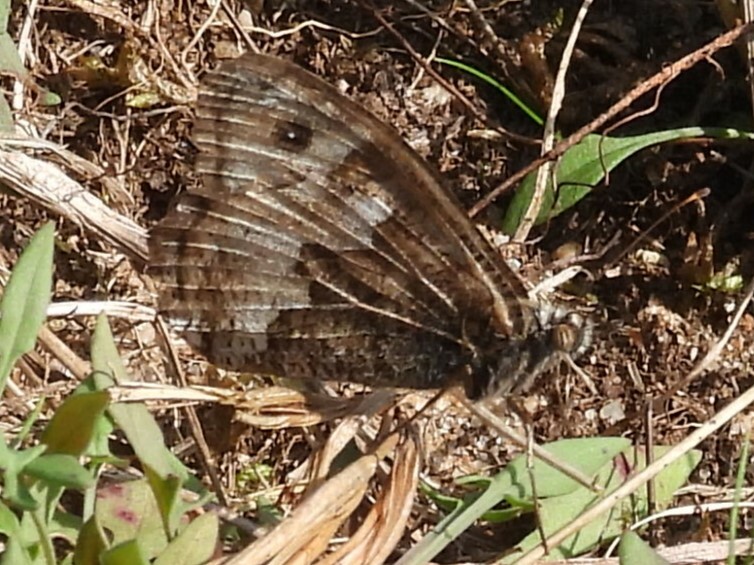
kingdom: Animalia
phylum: Arthropoda
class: Insecta
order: Lepidoptera
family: Nymphalidae
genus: Hipparchia
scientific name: Hipparchia semele
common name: Grayling
